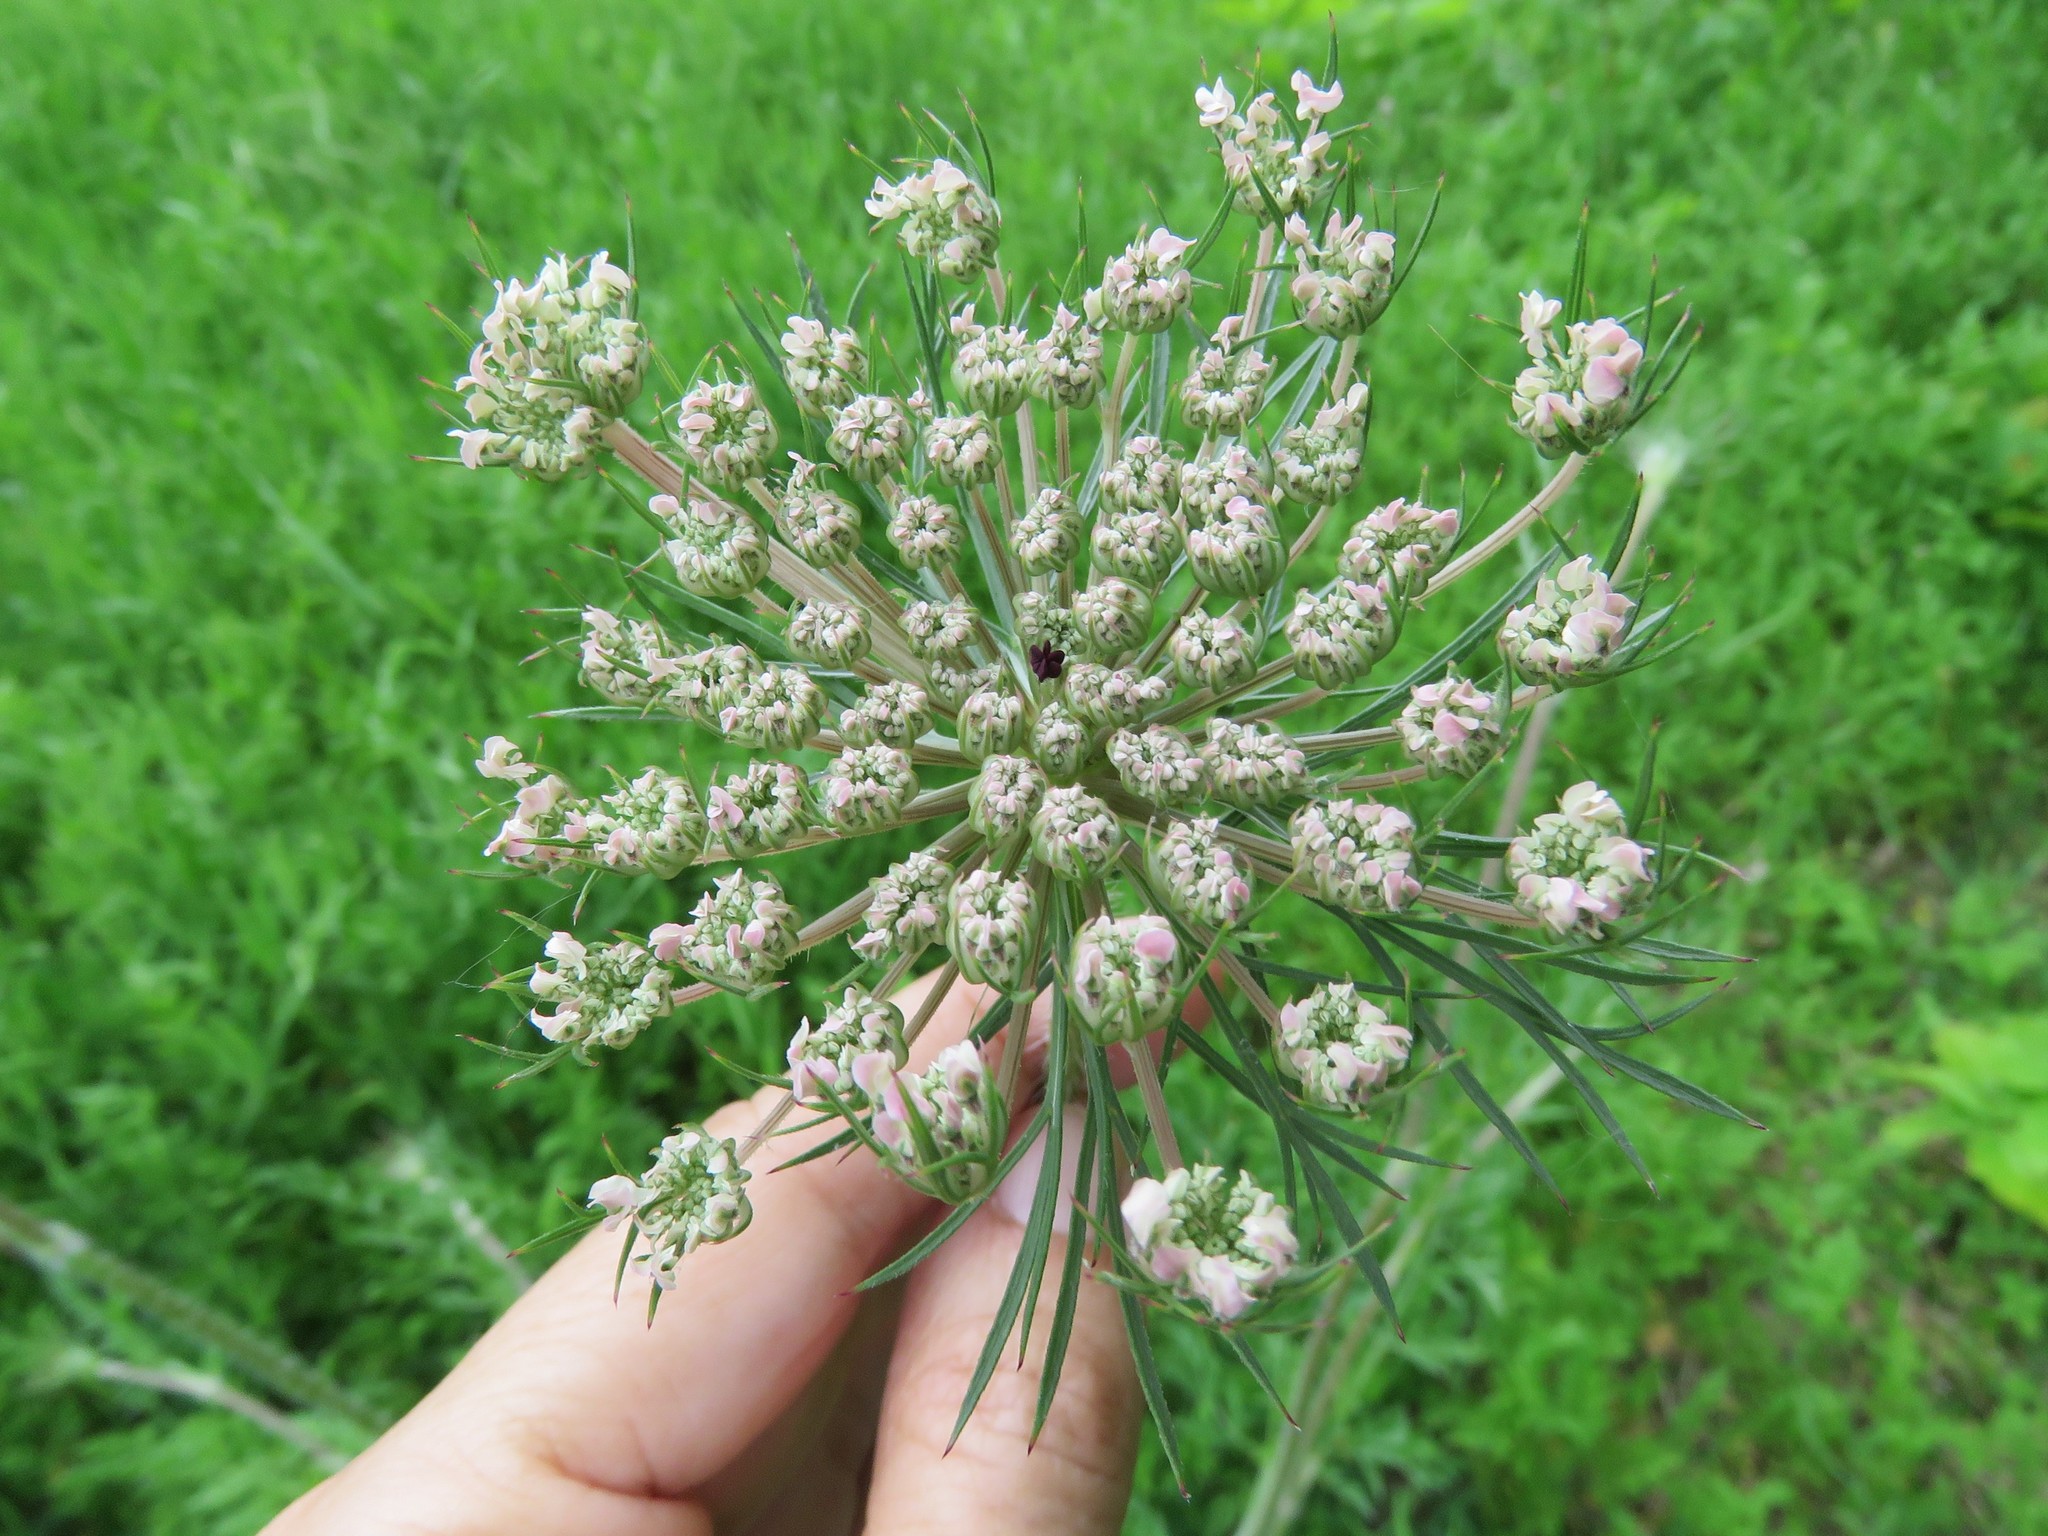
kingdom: Plantae
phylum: Tracheophyta
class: Magnoliopsida
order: Apiales
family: Apiaceae
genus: Daucus
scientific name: Daucus carota
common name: Wild carrot
